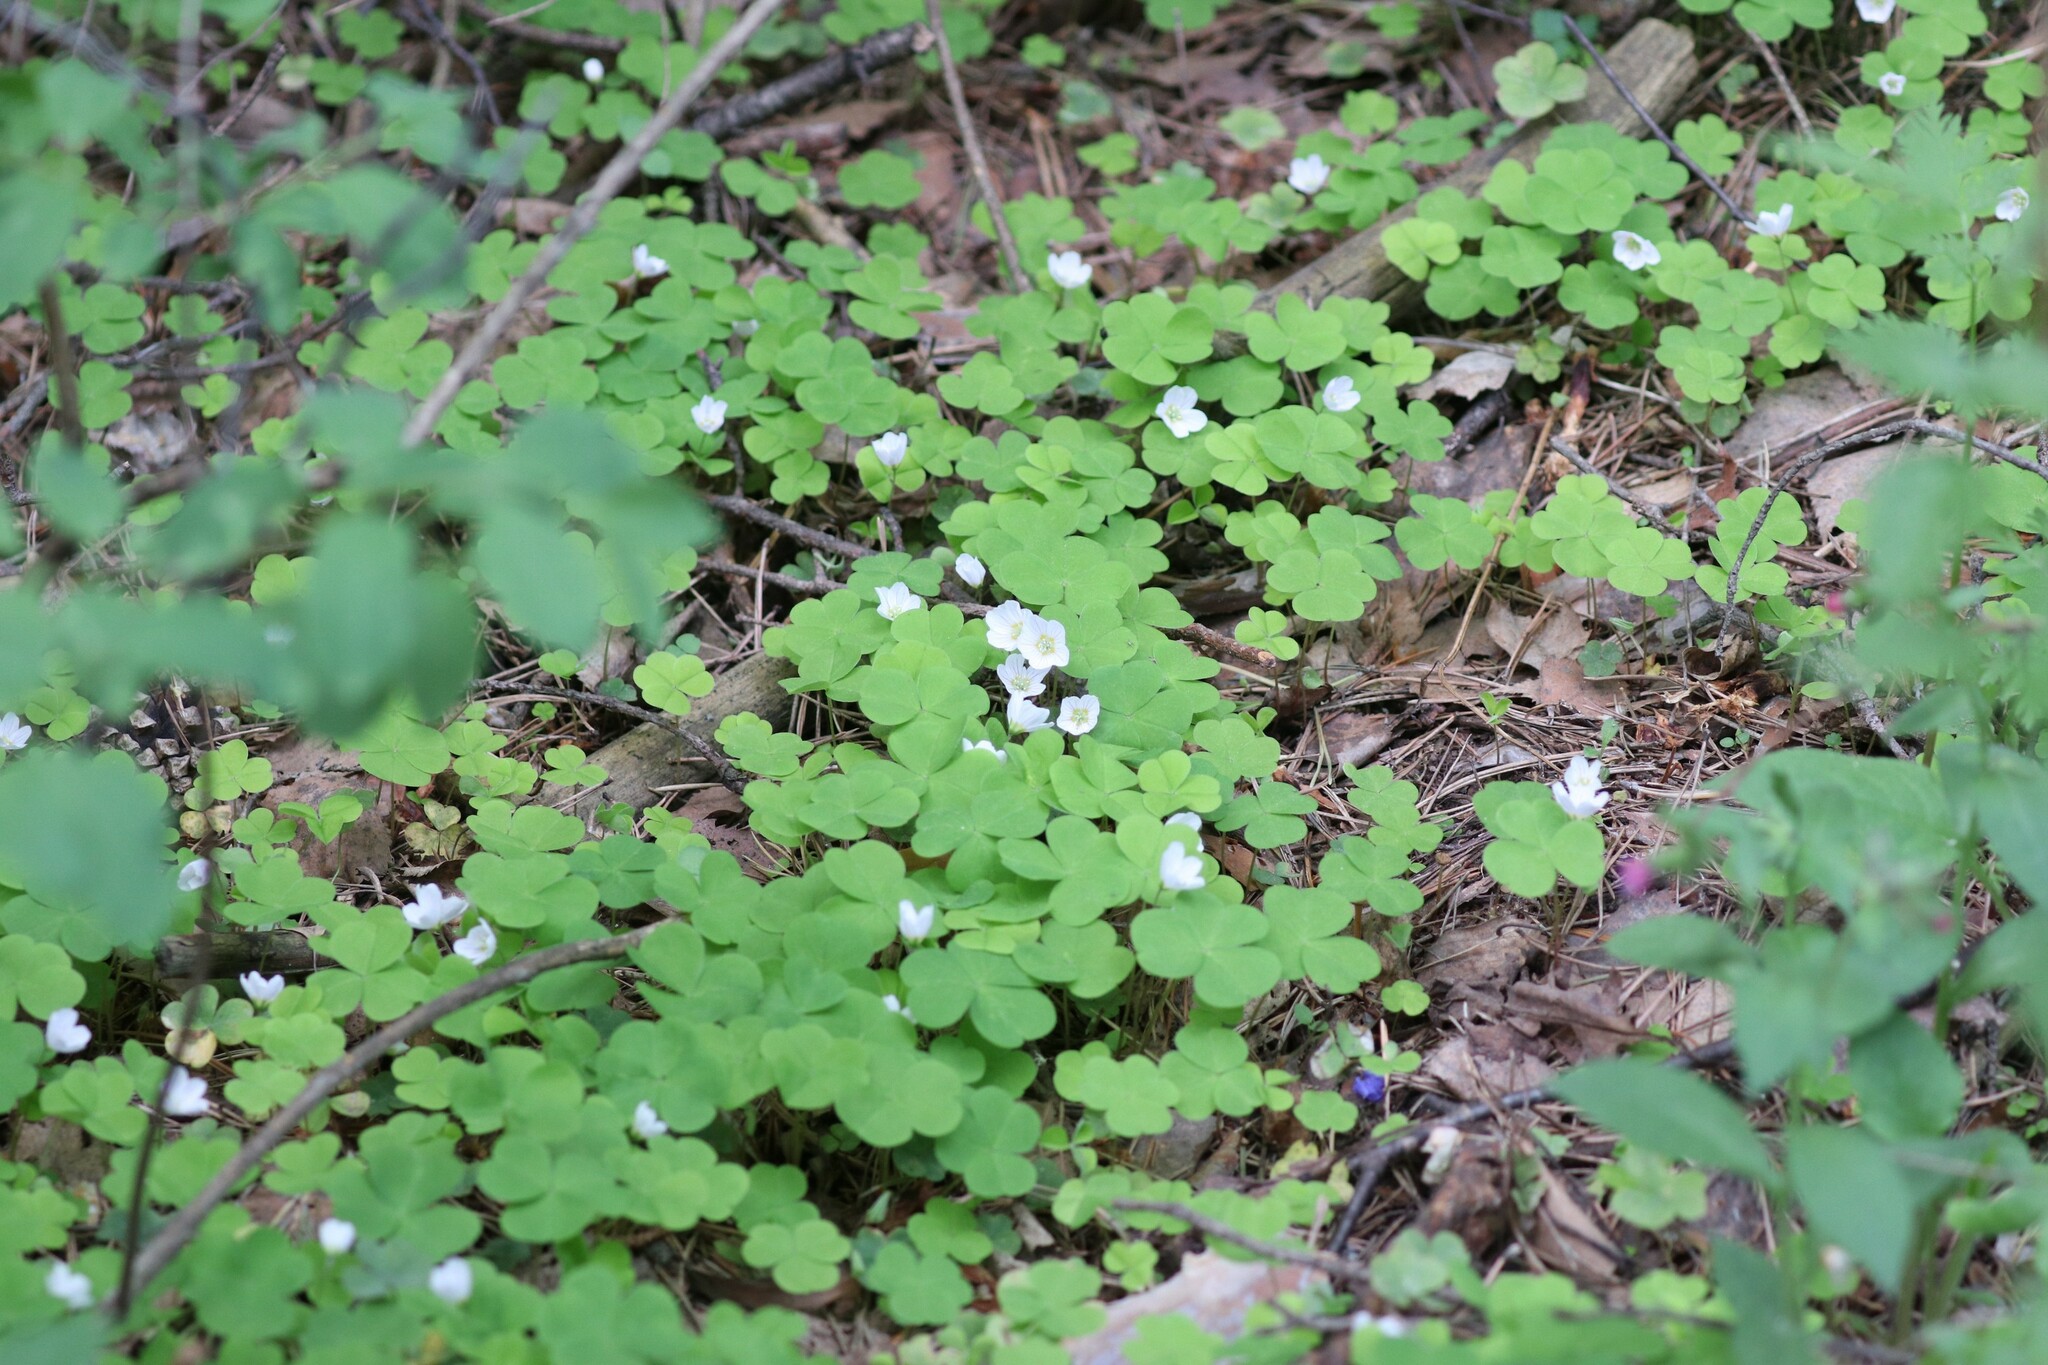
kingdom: Plantae
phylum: Tracheophyta
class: Magnoliopsida
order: Oxalidales
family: Oxalidaceae
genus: Oxalis
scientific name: Oxalis acetosella
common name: Wood-sorrel
